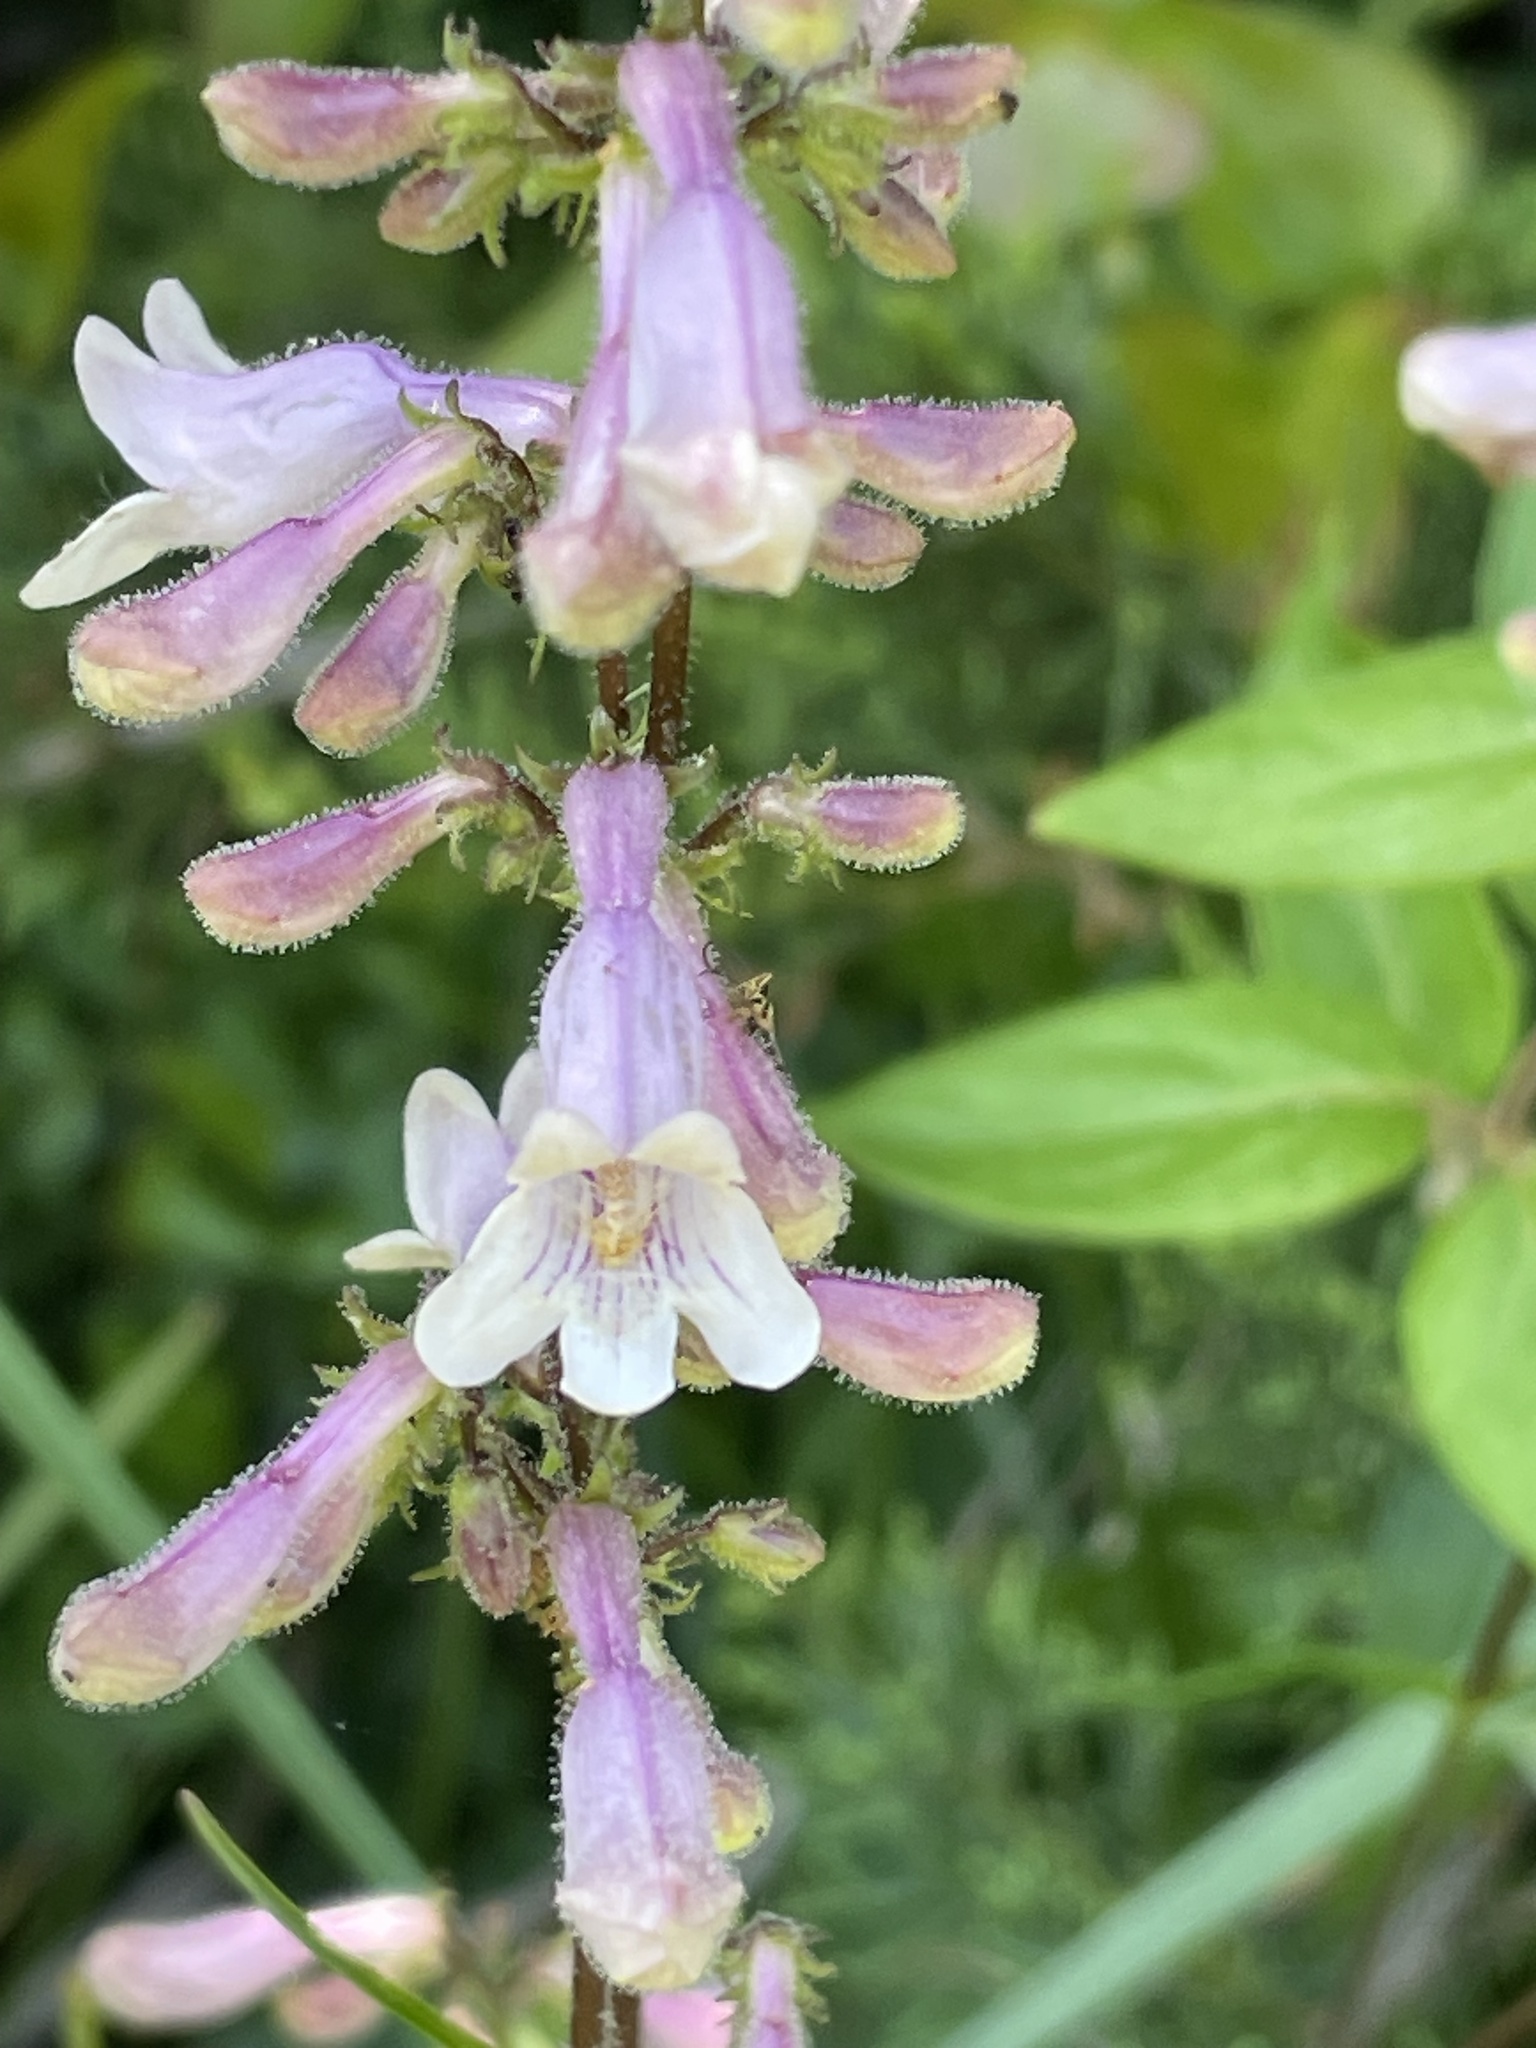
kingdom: Plantae
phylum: Tracheophyta
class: Magnoliopsida
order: Lamiales
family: Plantaginaceae
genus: Penstemon
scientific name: Penstemon laevigatus
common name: Eastern beardtongue
